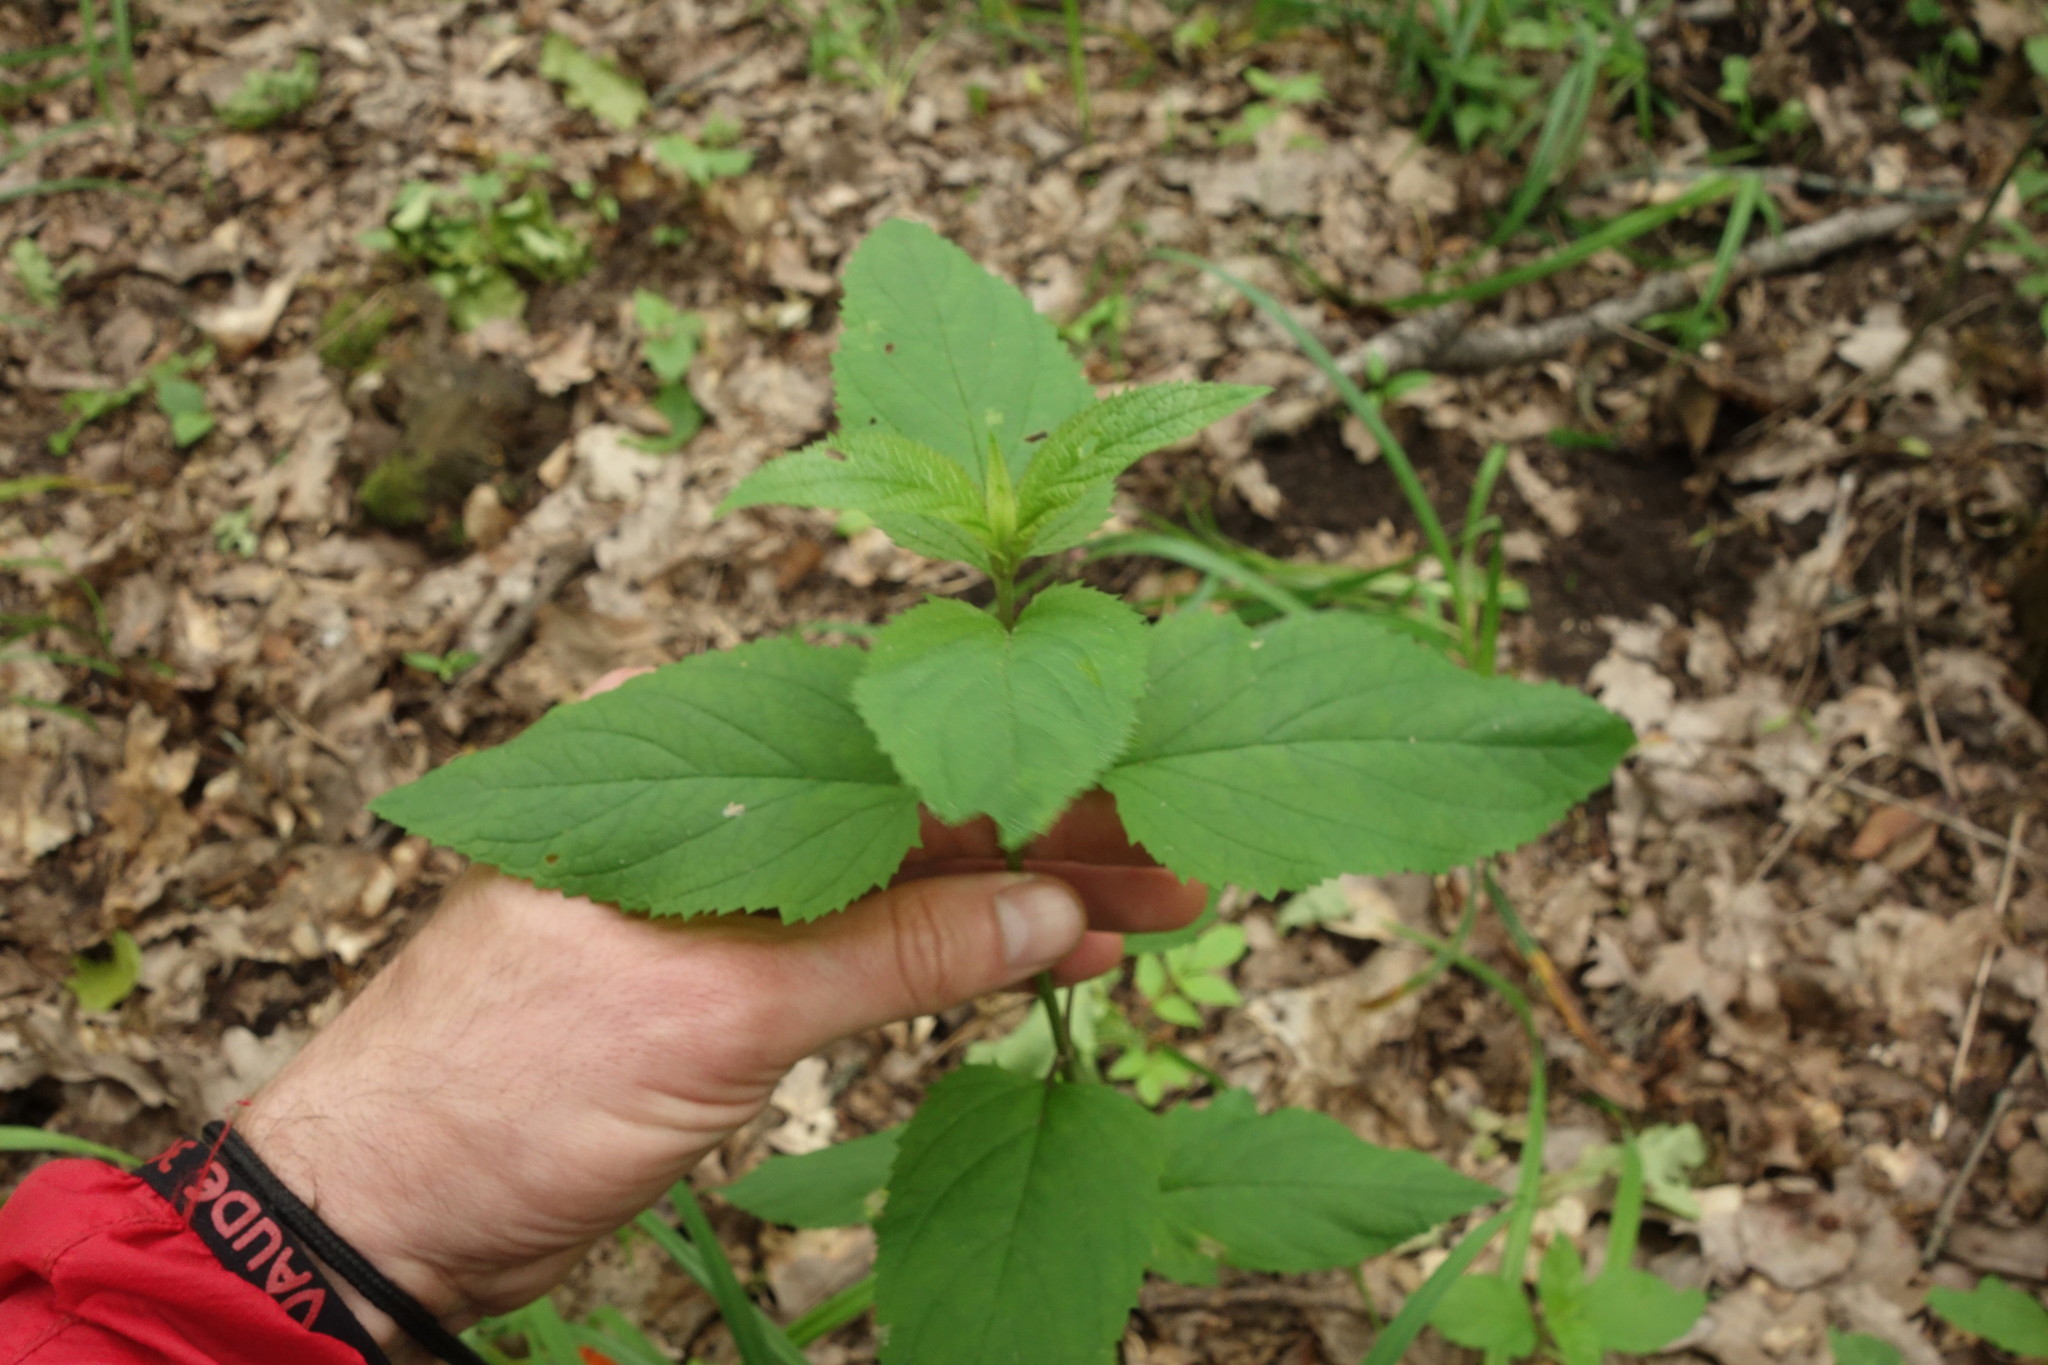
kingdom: Plantae
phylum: Tracheophyta
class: Magnoliopsida
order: Lamiales
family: Scrophulariaceae
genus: Scrophularia
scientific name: Scrophularia nodosa
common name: Common figwort
